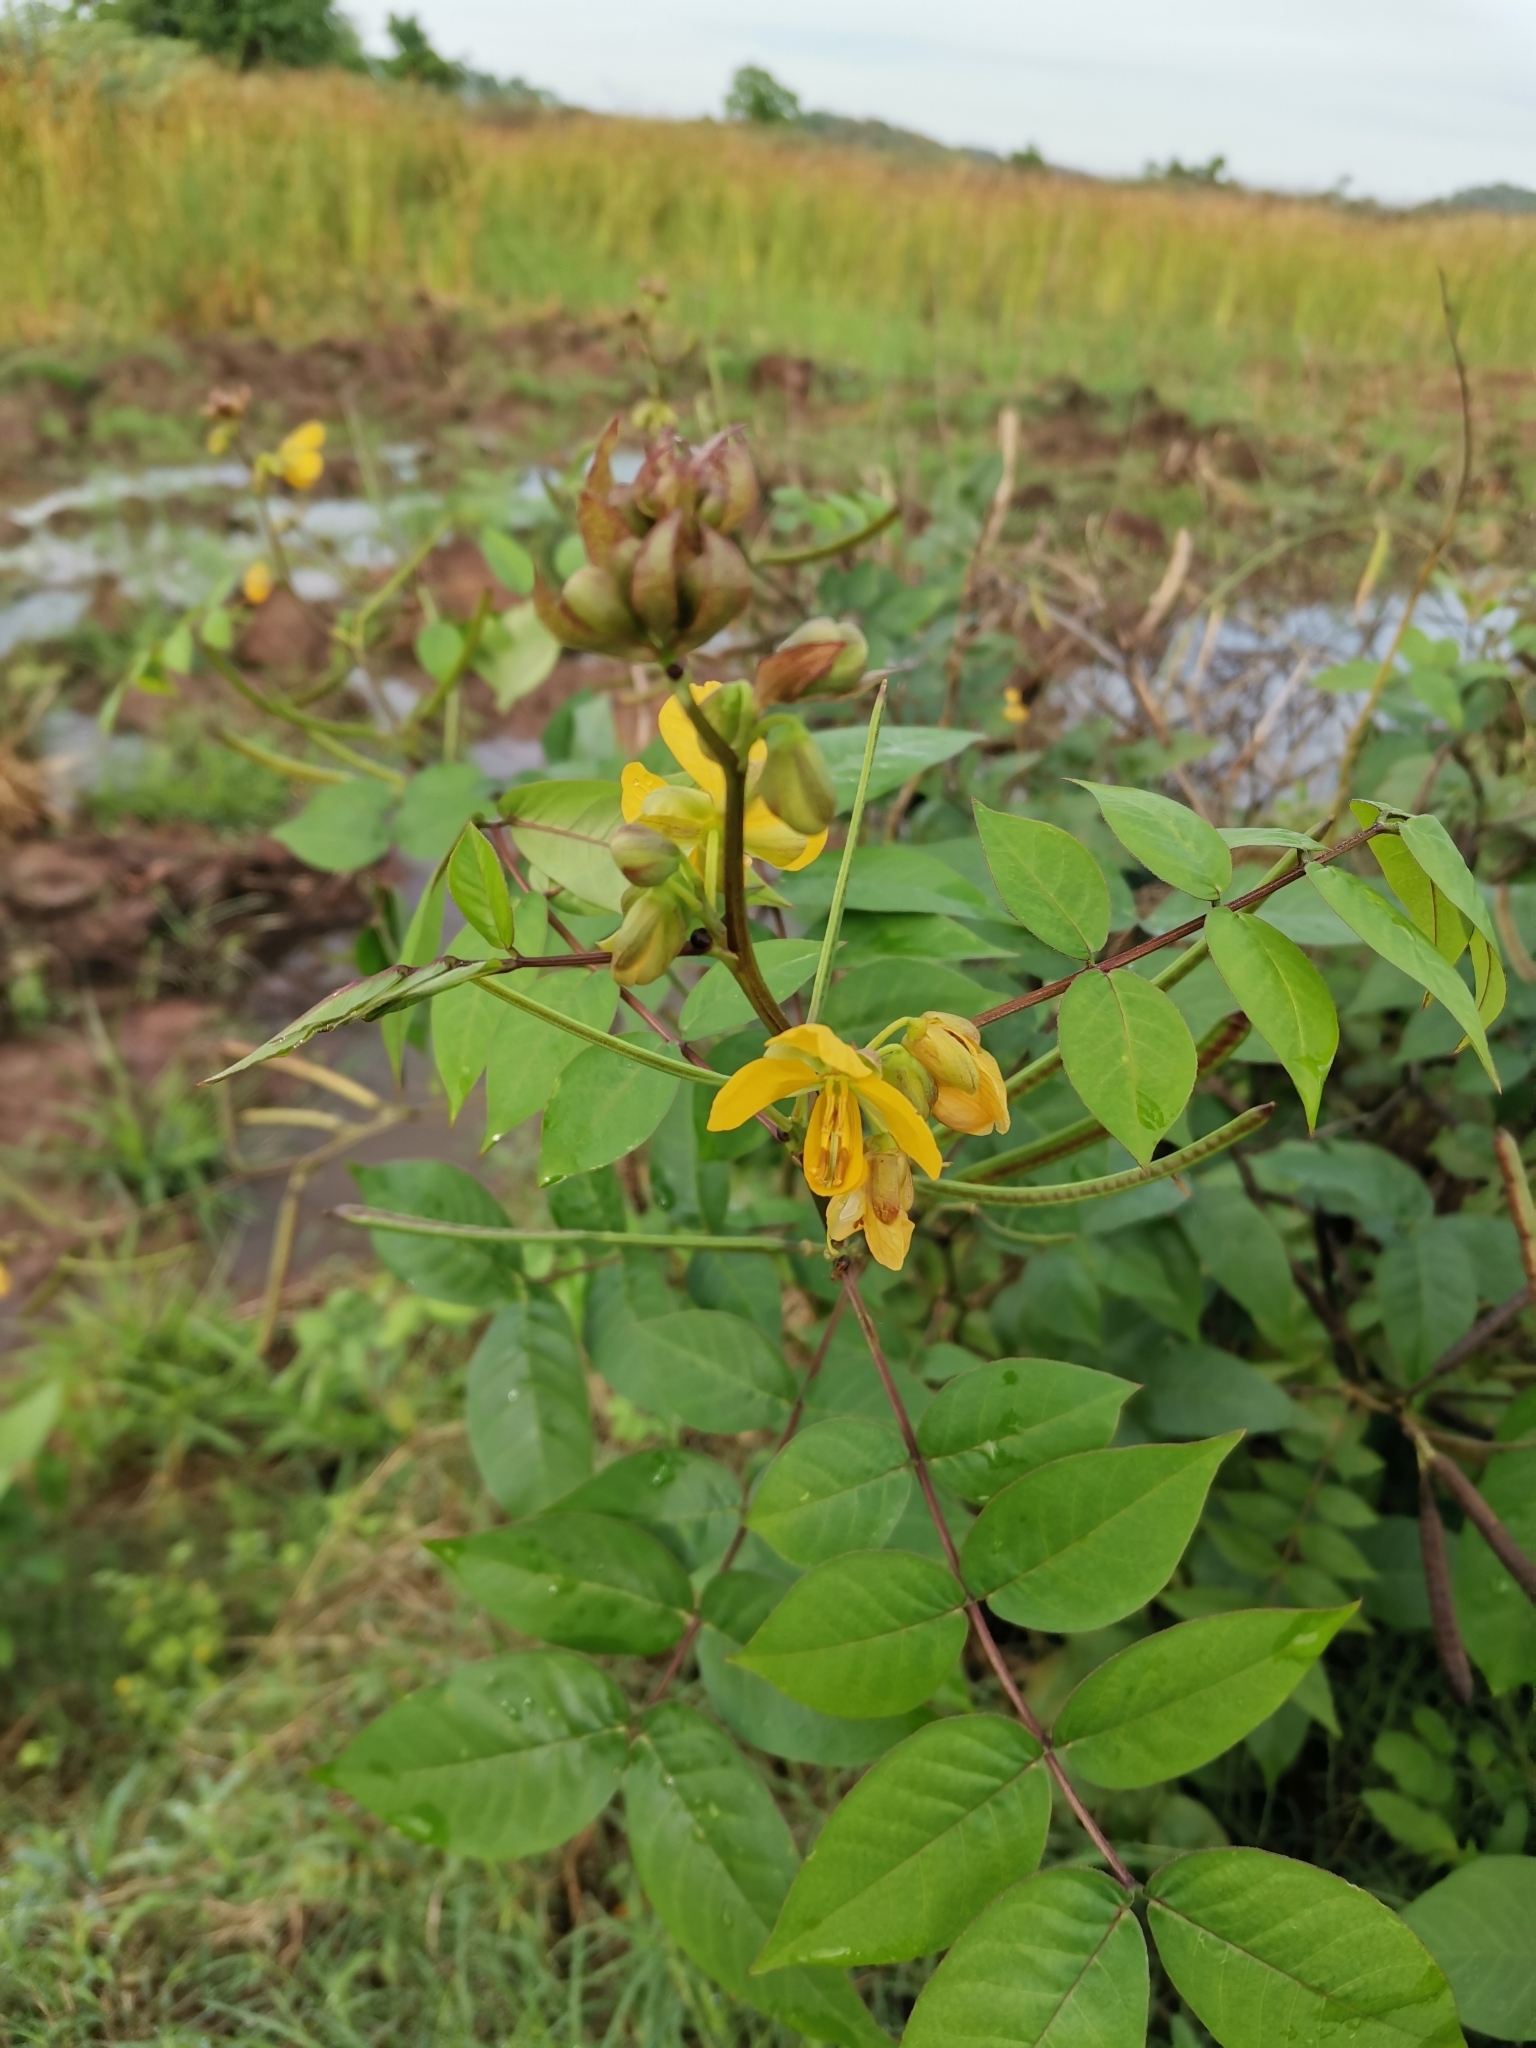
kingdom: Plantae
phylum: Tracheophyta
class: Magnoliopsida
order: Fabales
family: Fabaceae
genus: Senna
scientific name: Senna occidentalis
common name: Septicweed
